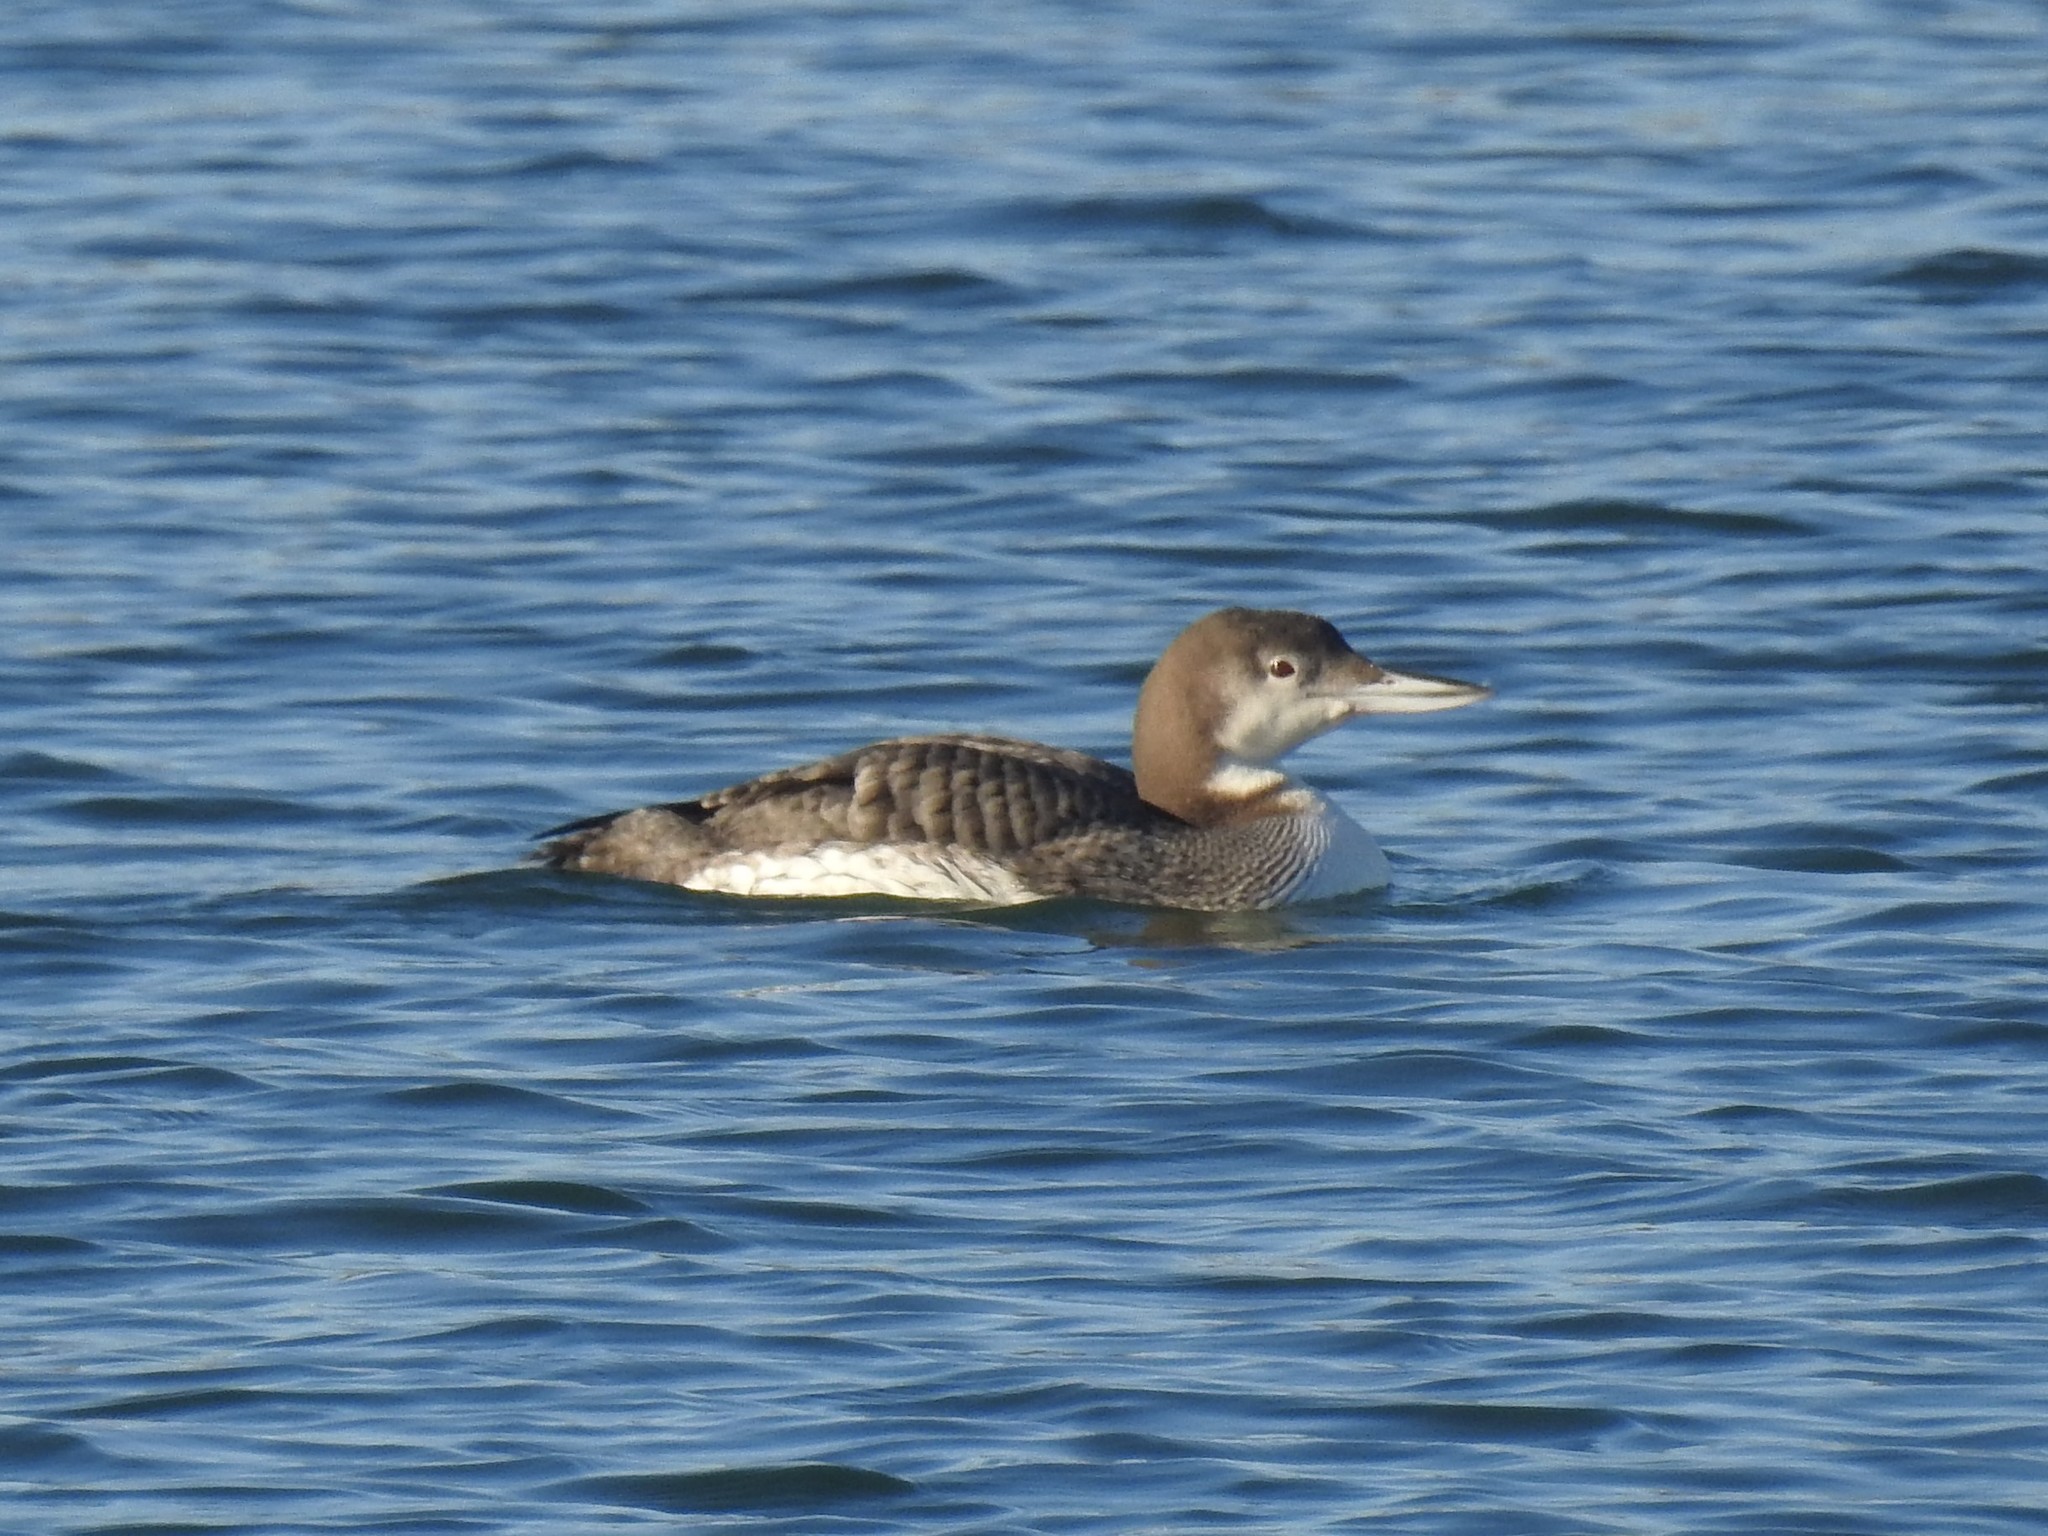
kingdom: Animalia
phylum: Chordata
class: Aves
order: Gaviiformes
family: Gaviidae
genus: Gavia
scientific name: Gavia immer
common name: Common loon
